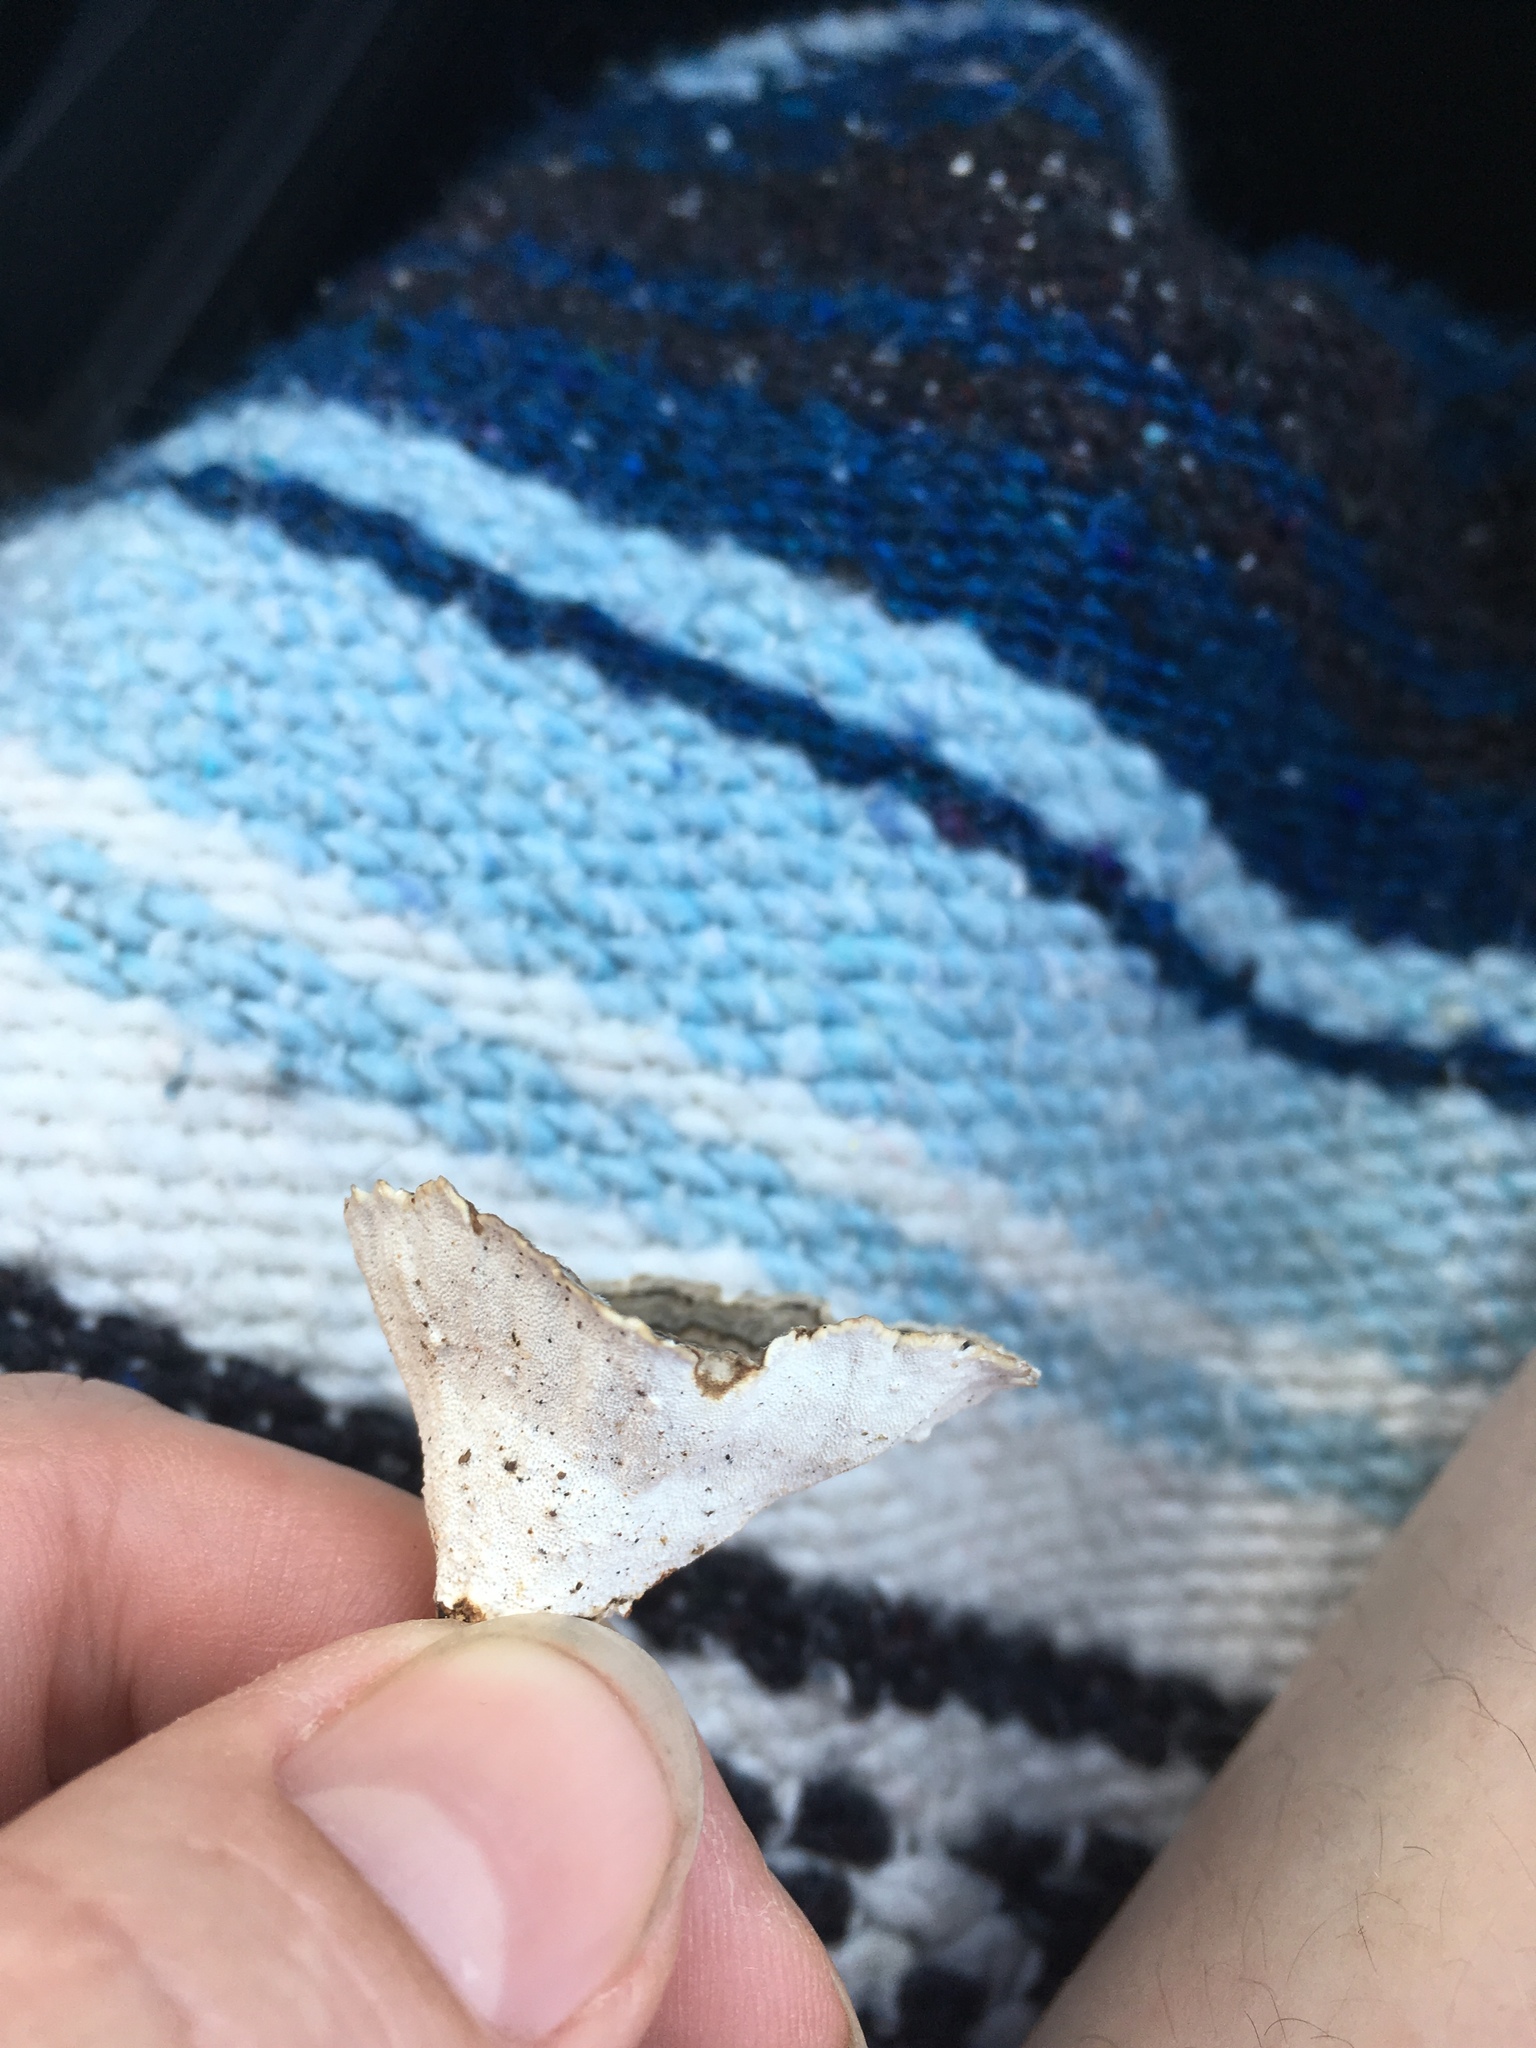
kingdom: Fungi
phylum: Basidiomycota
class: Agaricomycetes
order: Polyporales
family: Polyporaceae
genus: Trametes
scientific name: Trametes versicolor
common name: Turkeytail
